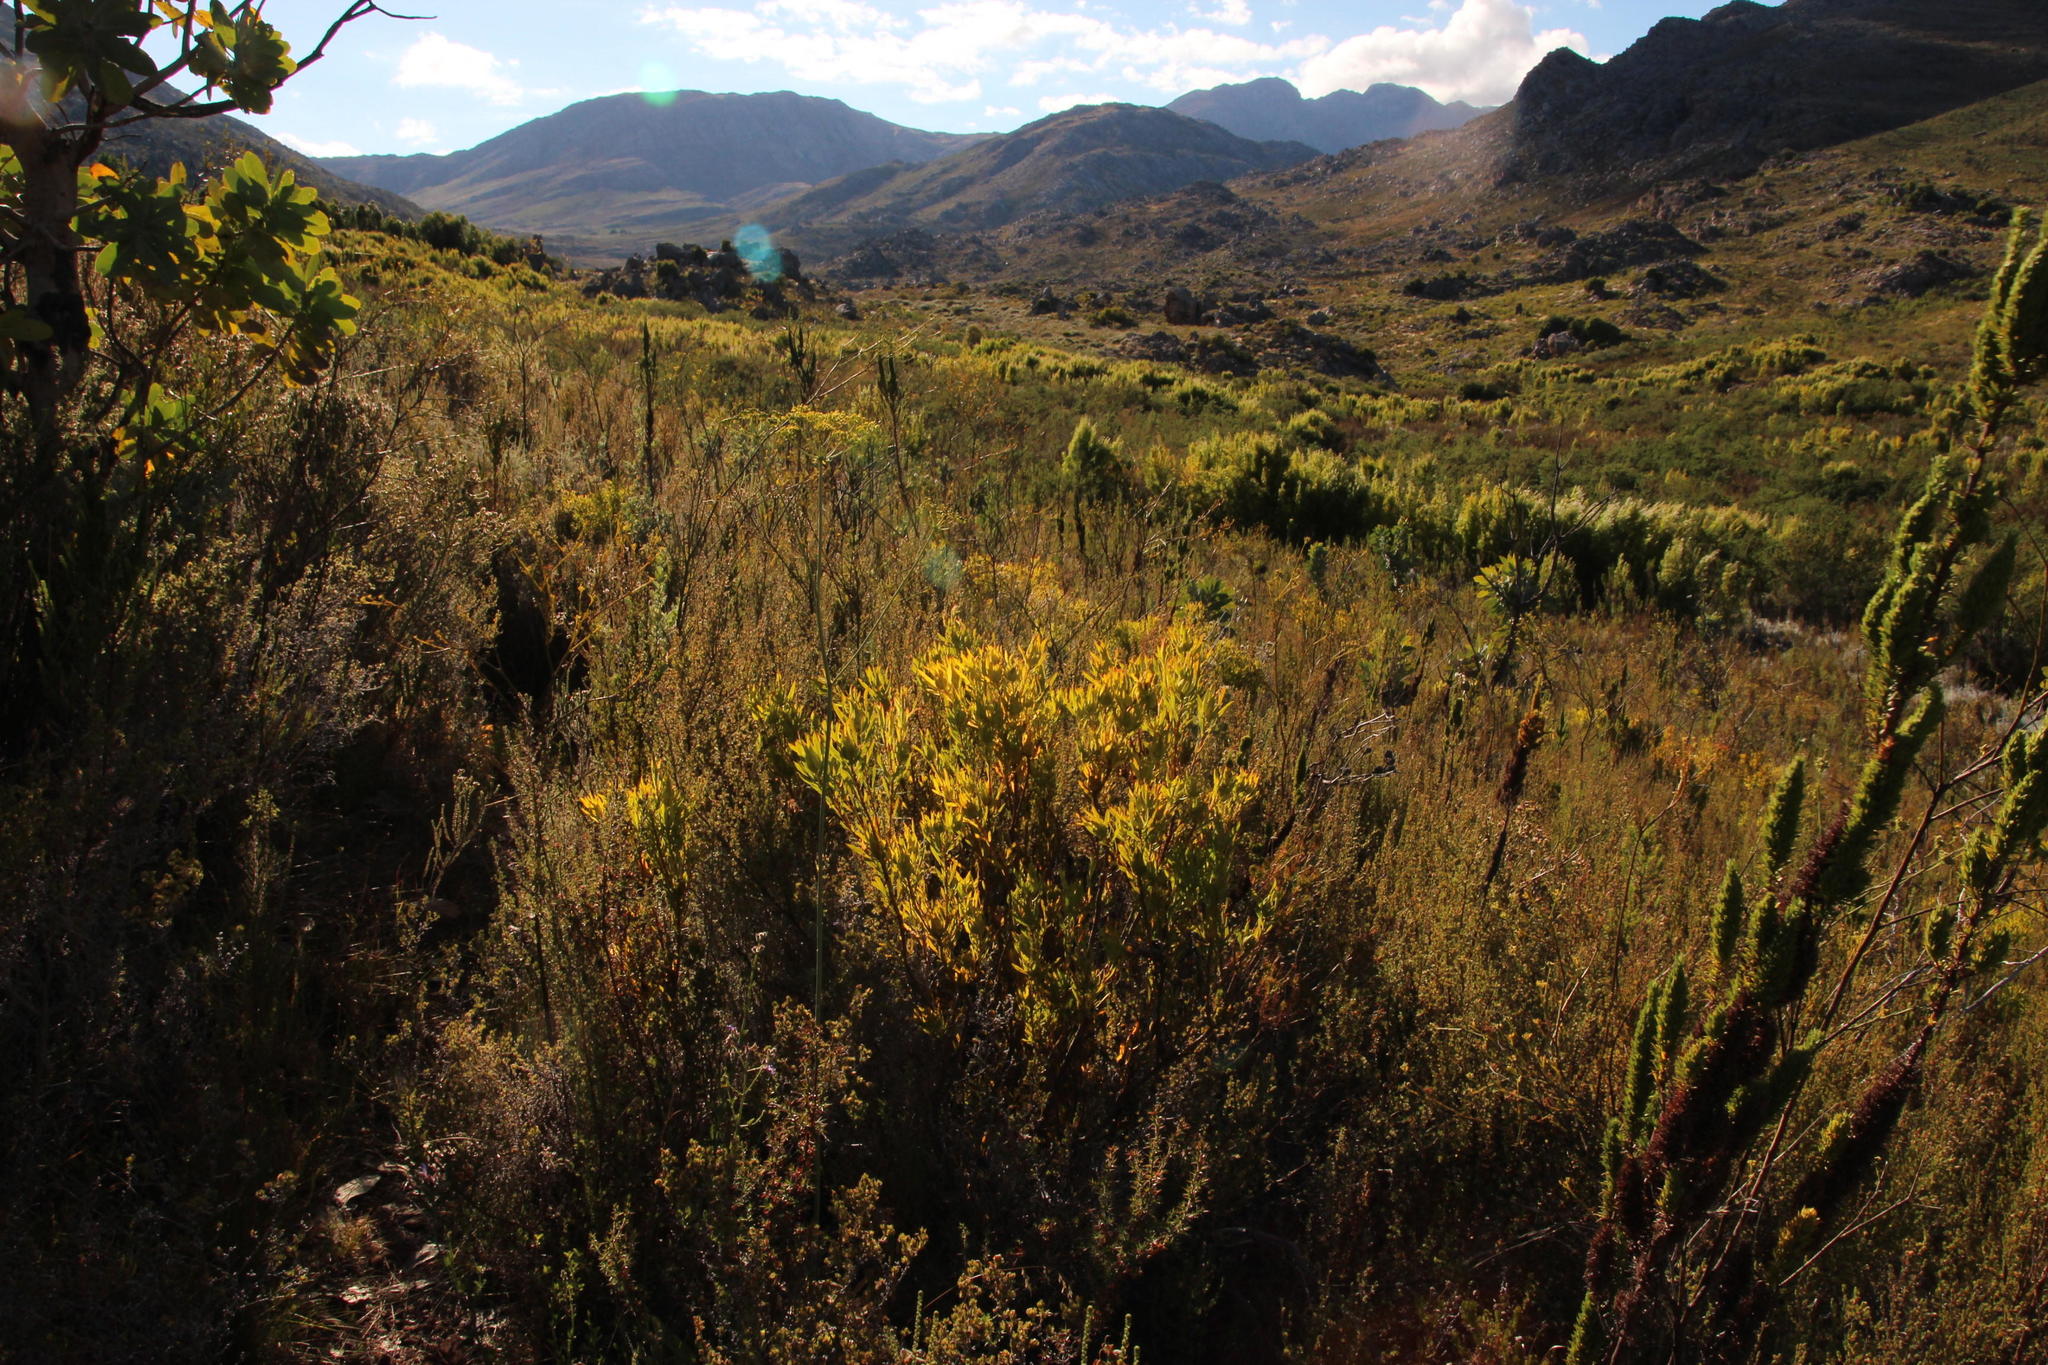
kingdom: Plantae
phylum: Tracheophyta
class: Magnoliopsida
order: Proteales
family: Proteaceae
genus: Leucadendron
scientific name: Leucadendron salignum
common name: Common sunshine conebush
